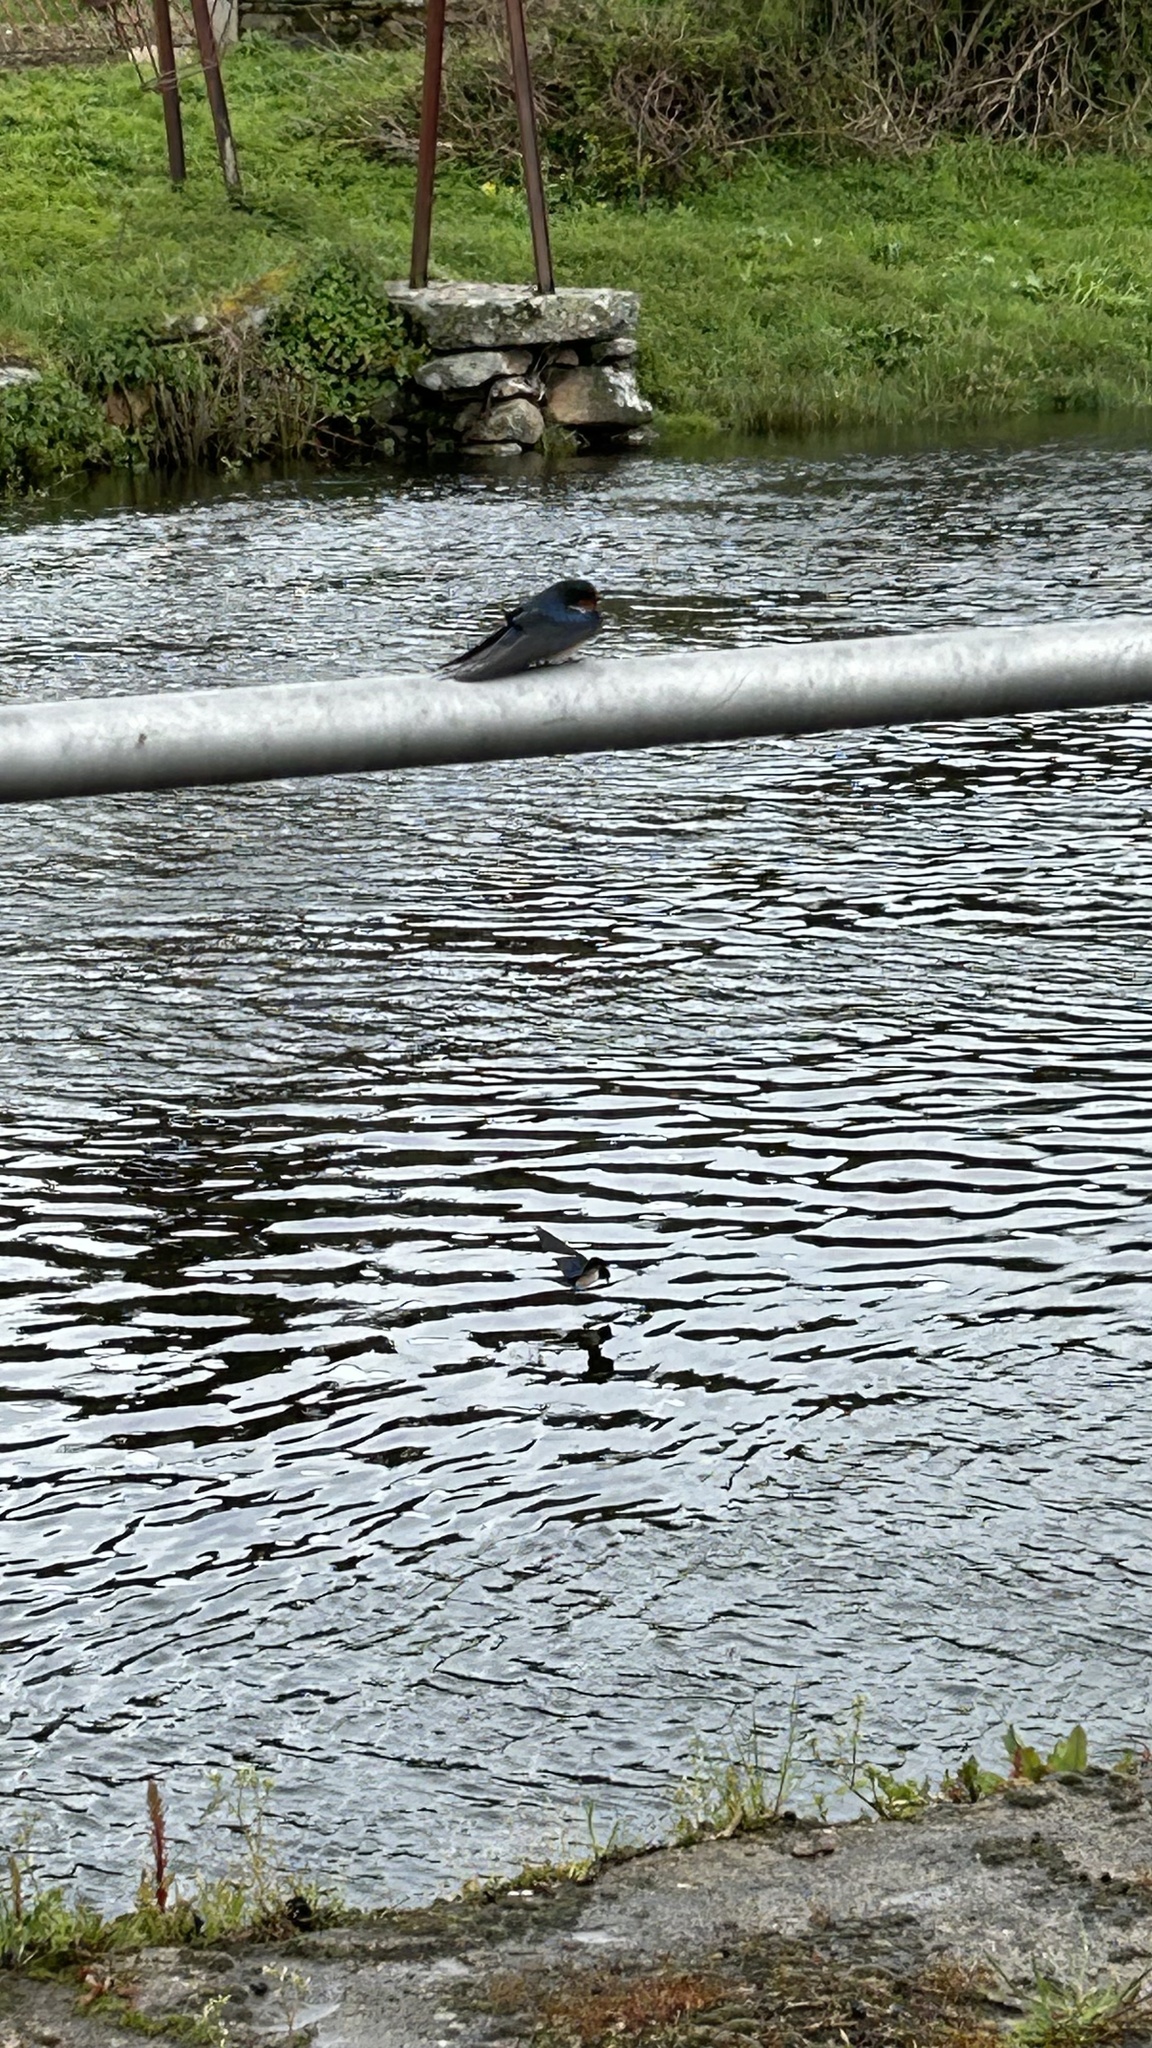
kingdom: Animalia
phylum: Chordata
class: Aves
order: Passeriformes
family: Hirundinidae
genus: Hirundo
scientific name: Hirundo rustica
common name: Barn swallow
